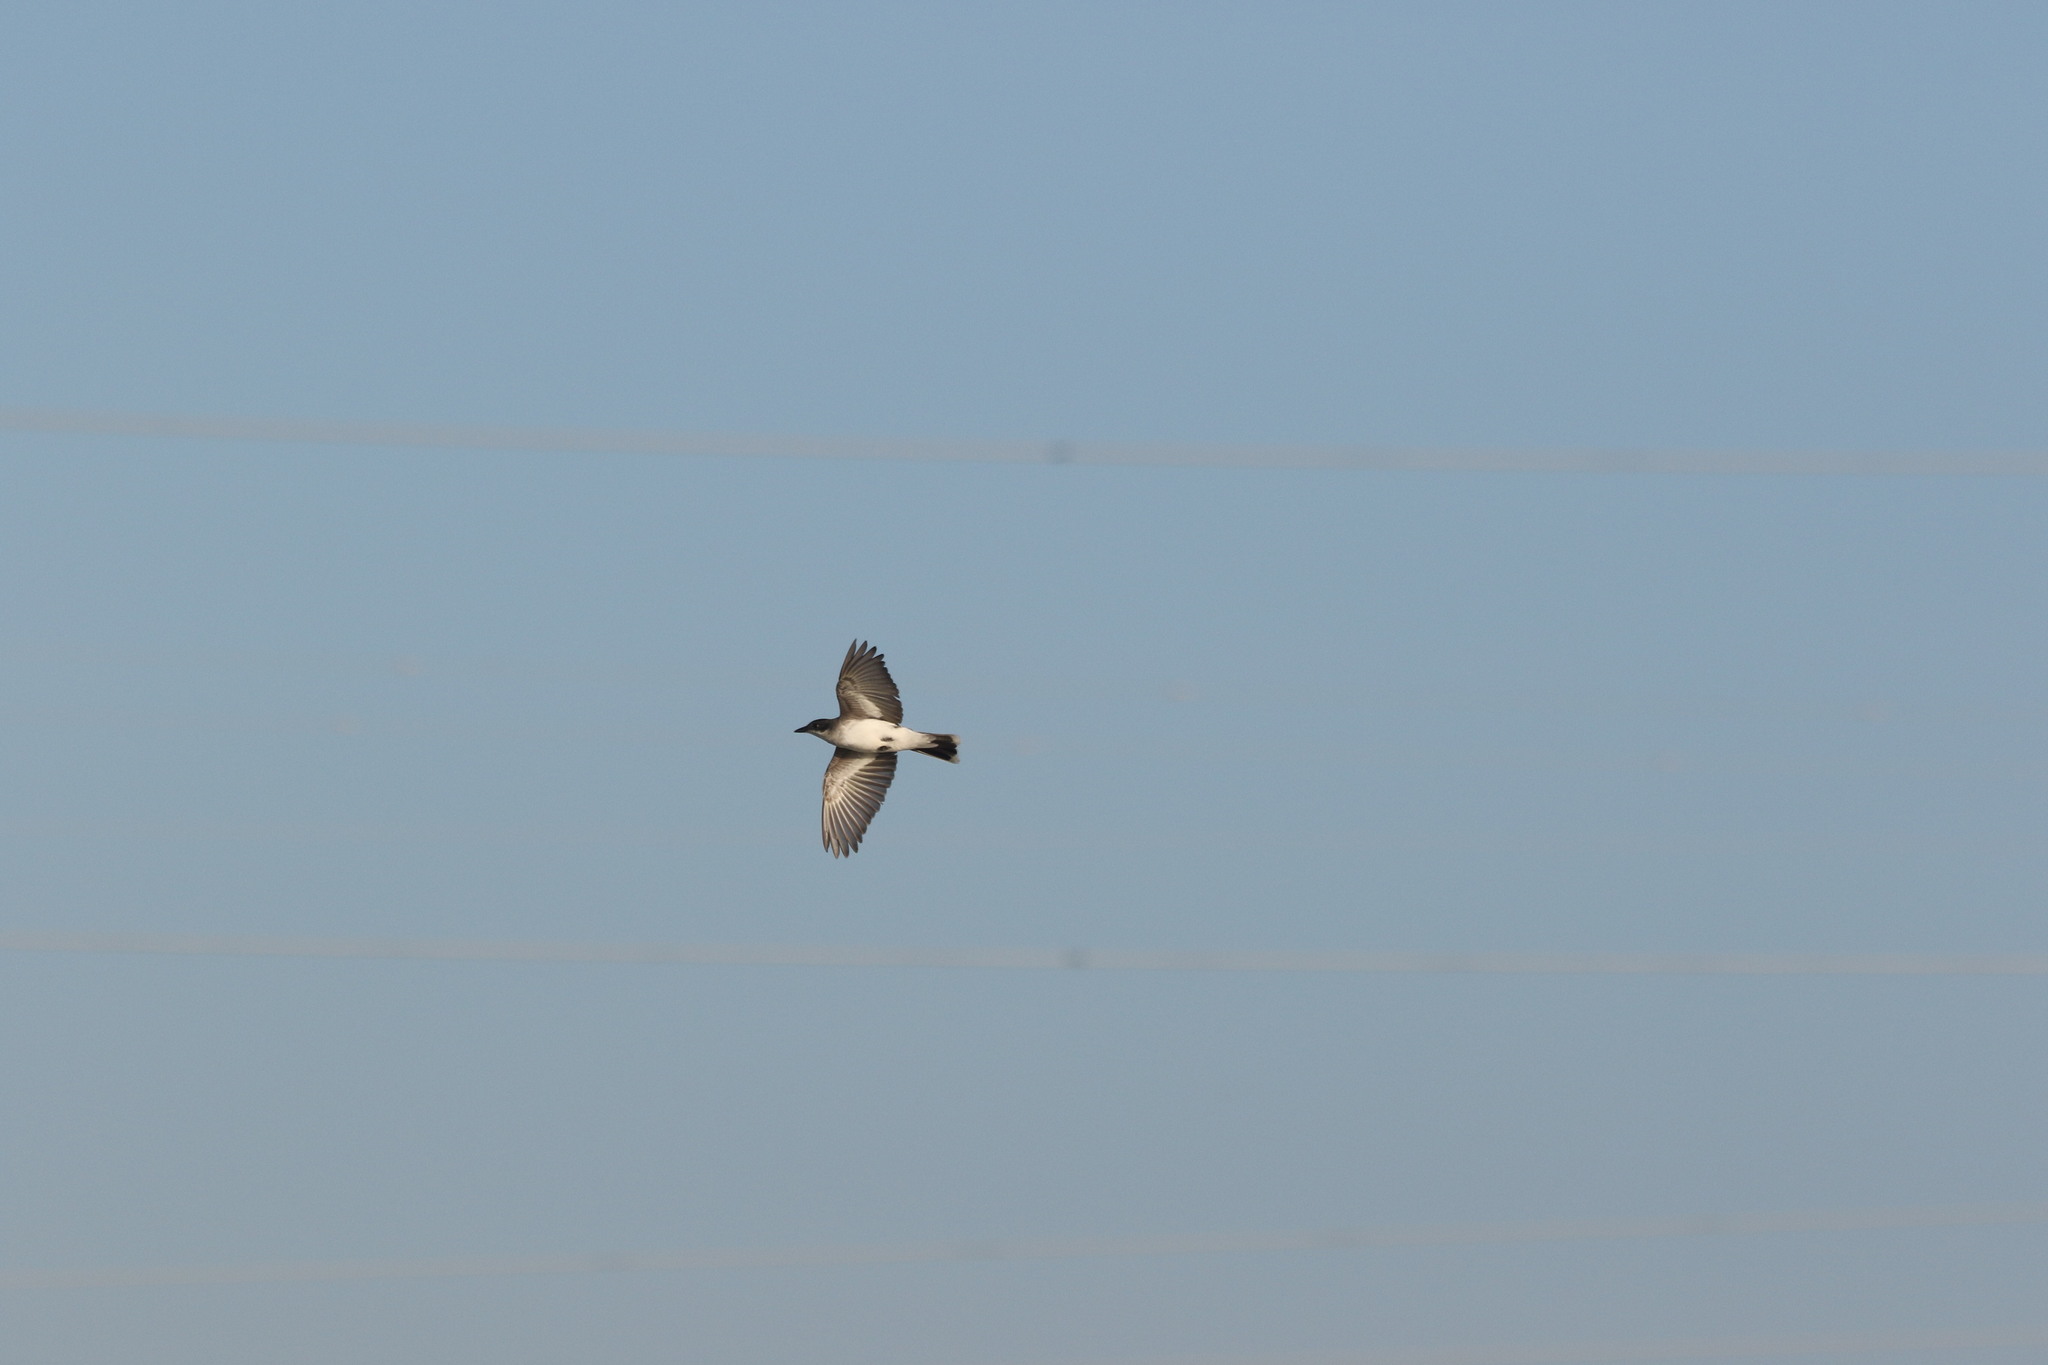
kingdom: Animalia
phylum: Chordata
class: Aves
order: Passeriformes
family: Tyrannidae
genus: Tyrannus
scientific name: Tyrannus tyrannus
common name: Eastern kingbird
